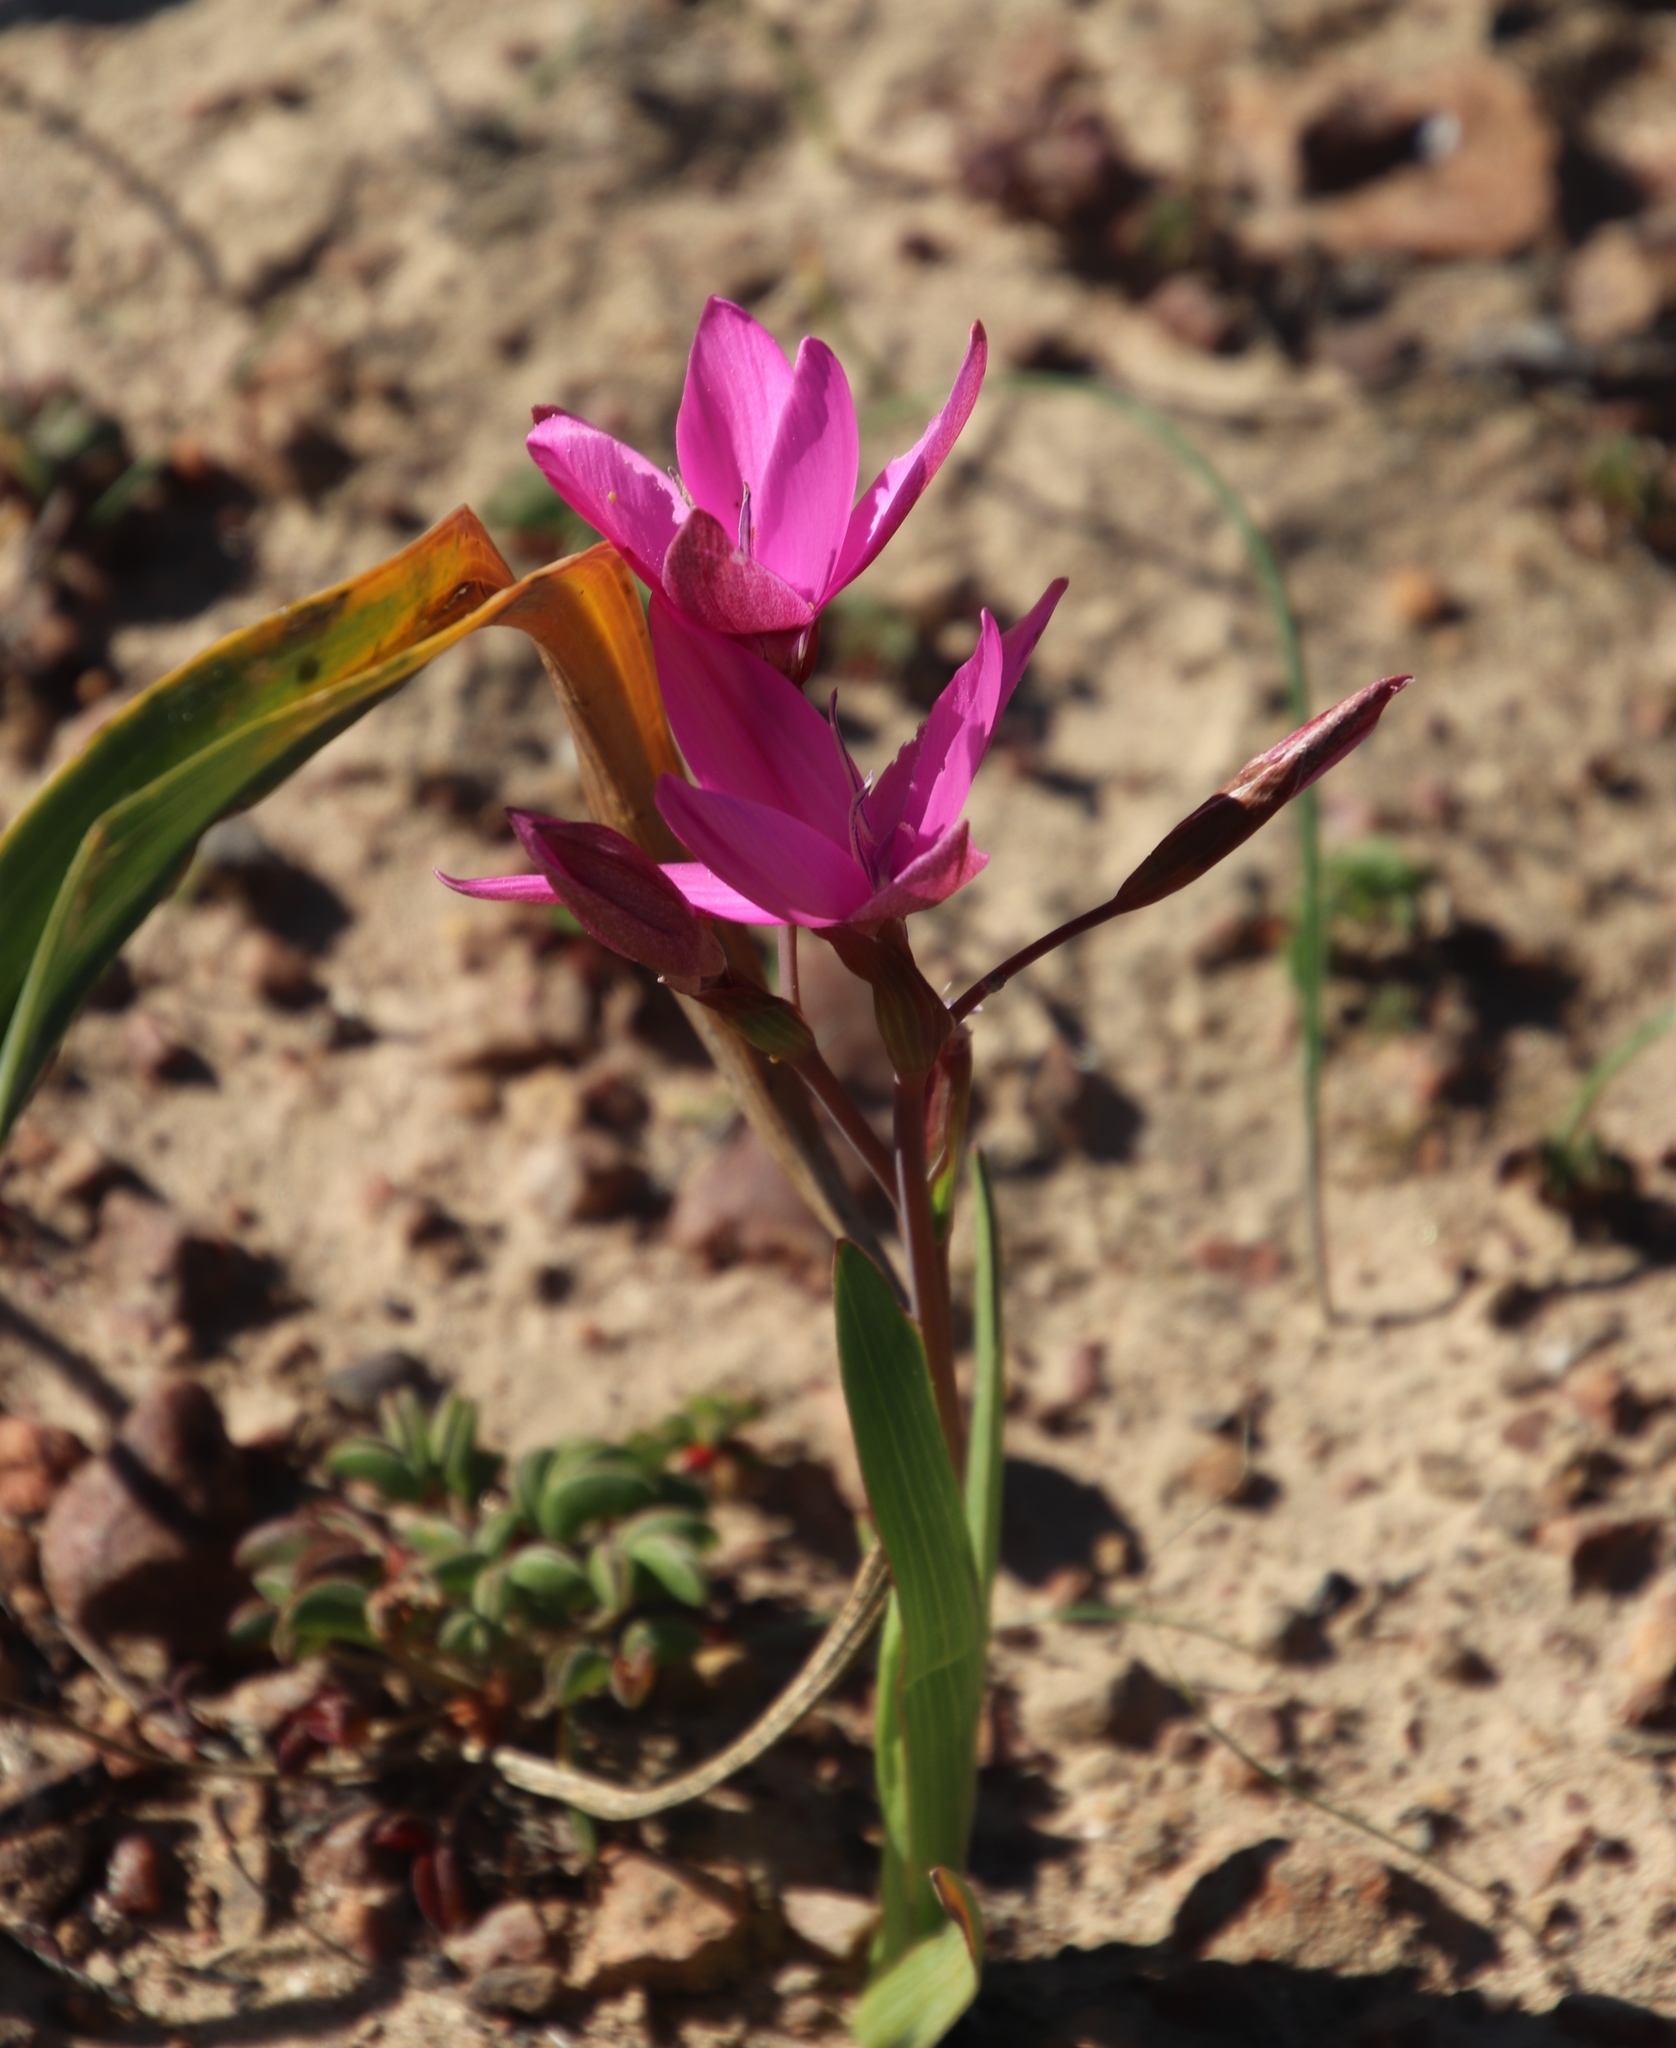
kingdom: Plantae
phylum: Tracheophyta
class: Liliopsida
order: Asparagales
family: Iridaceae
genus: Hesperantha
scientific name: Hesperantha pauciflora
